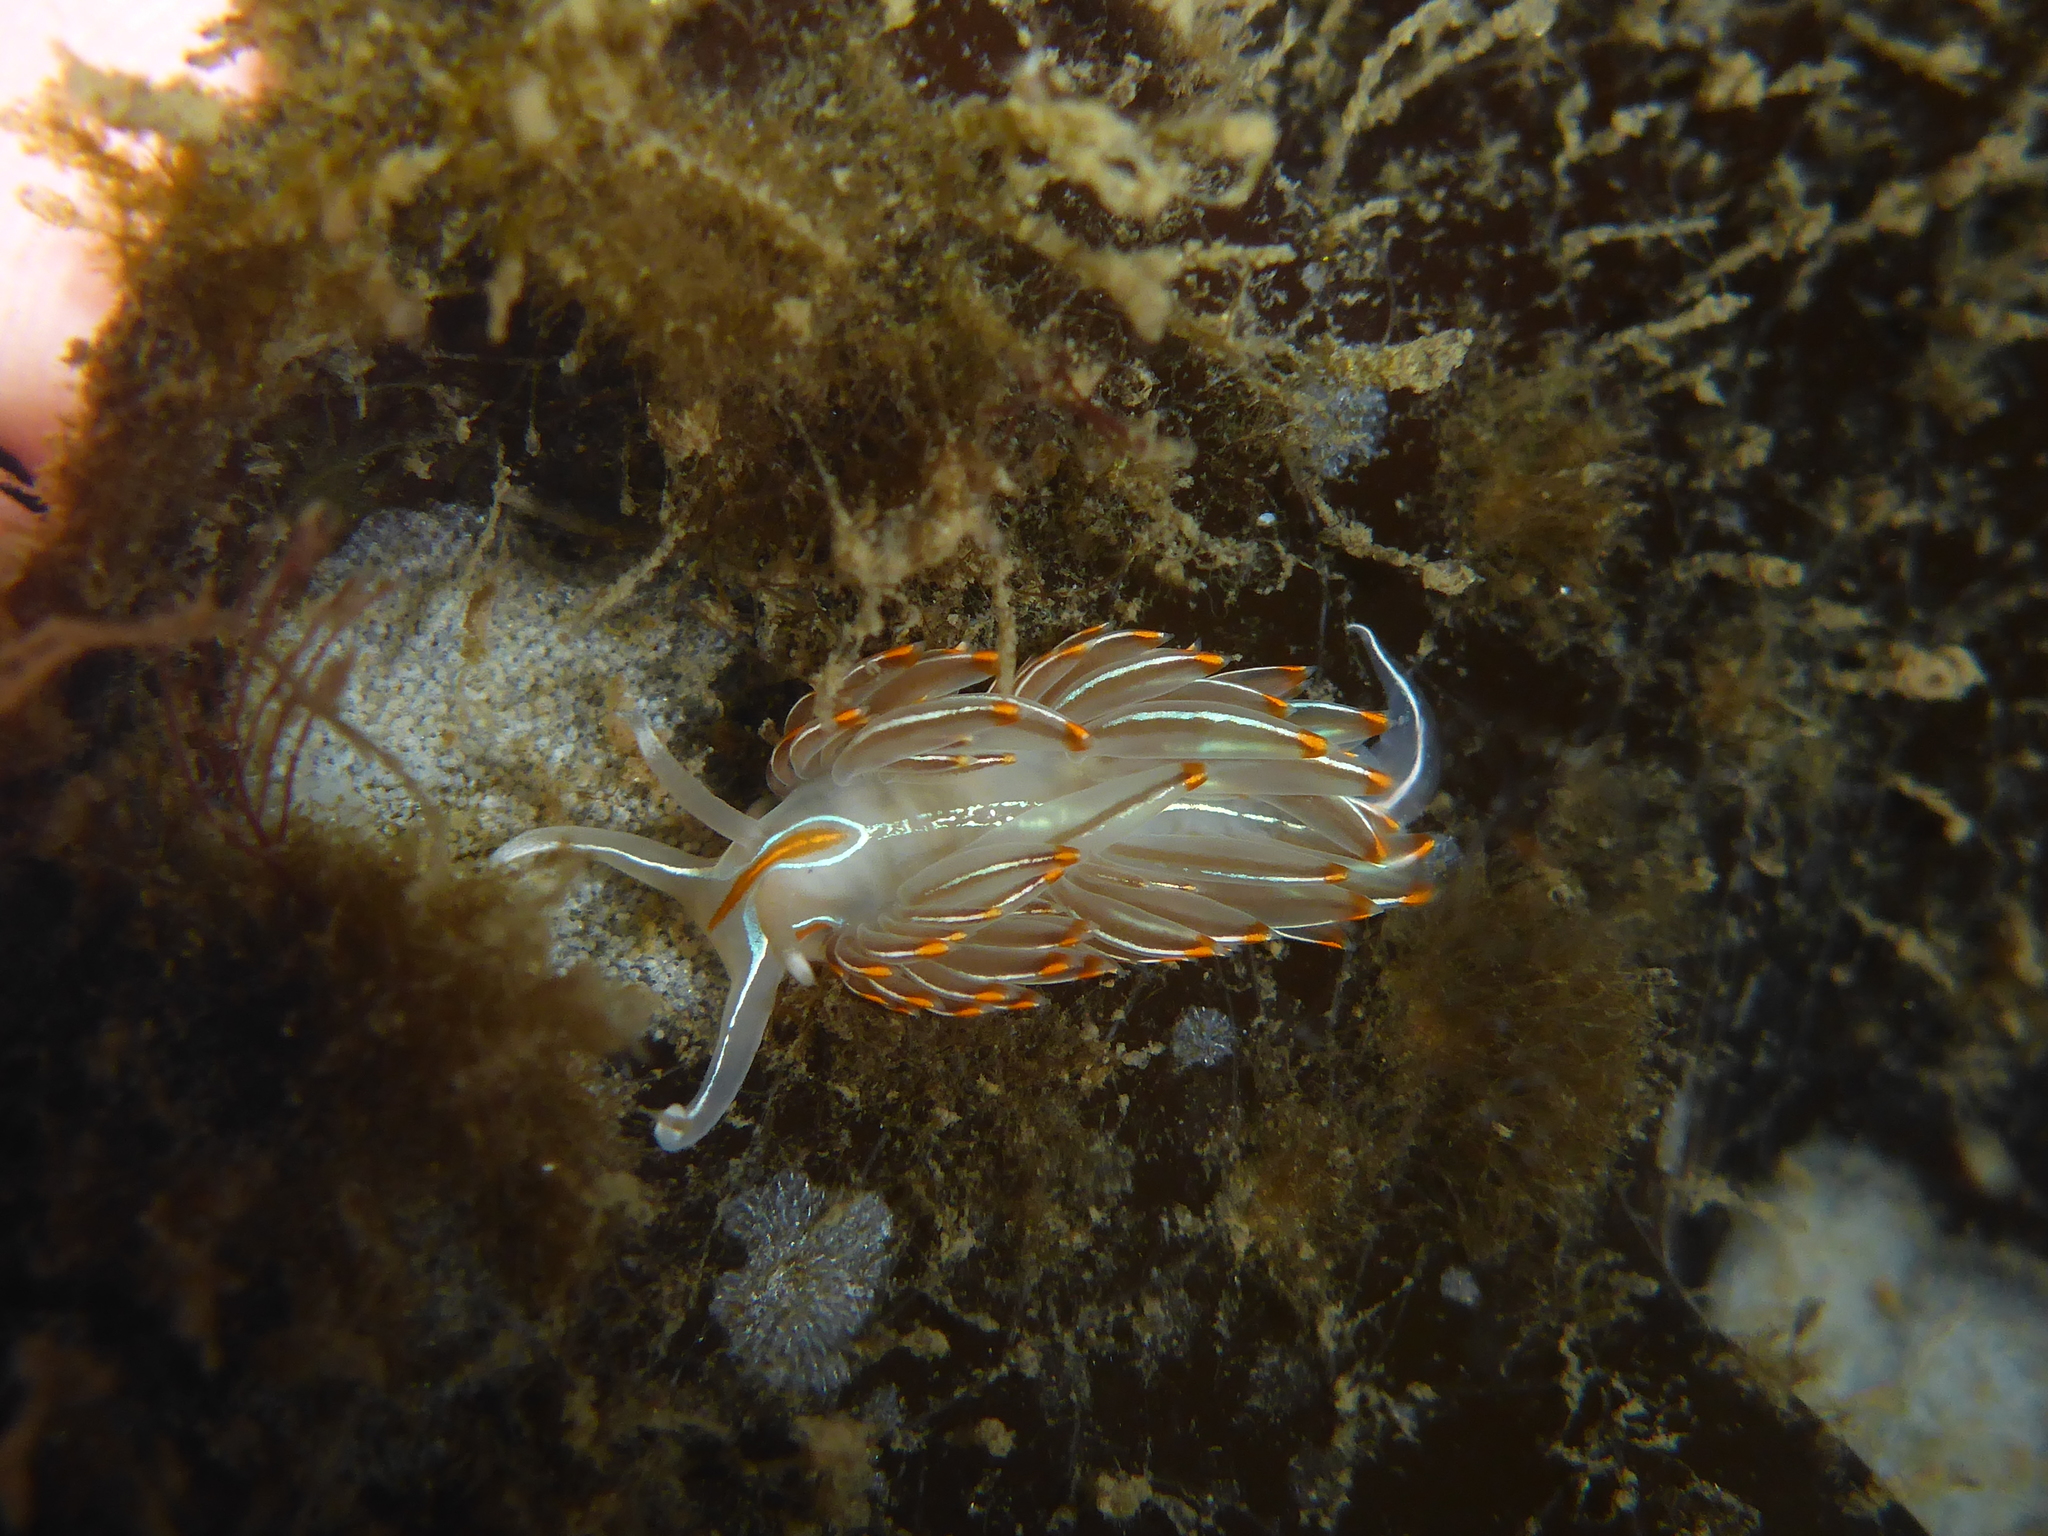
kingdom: Animalia
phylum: Mollusca
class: Gastropoda
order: Nudibranchia
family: Myrrhinidae
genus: Hermissenda
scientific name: Hermissenda crassicornis
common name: Hermissenda
